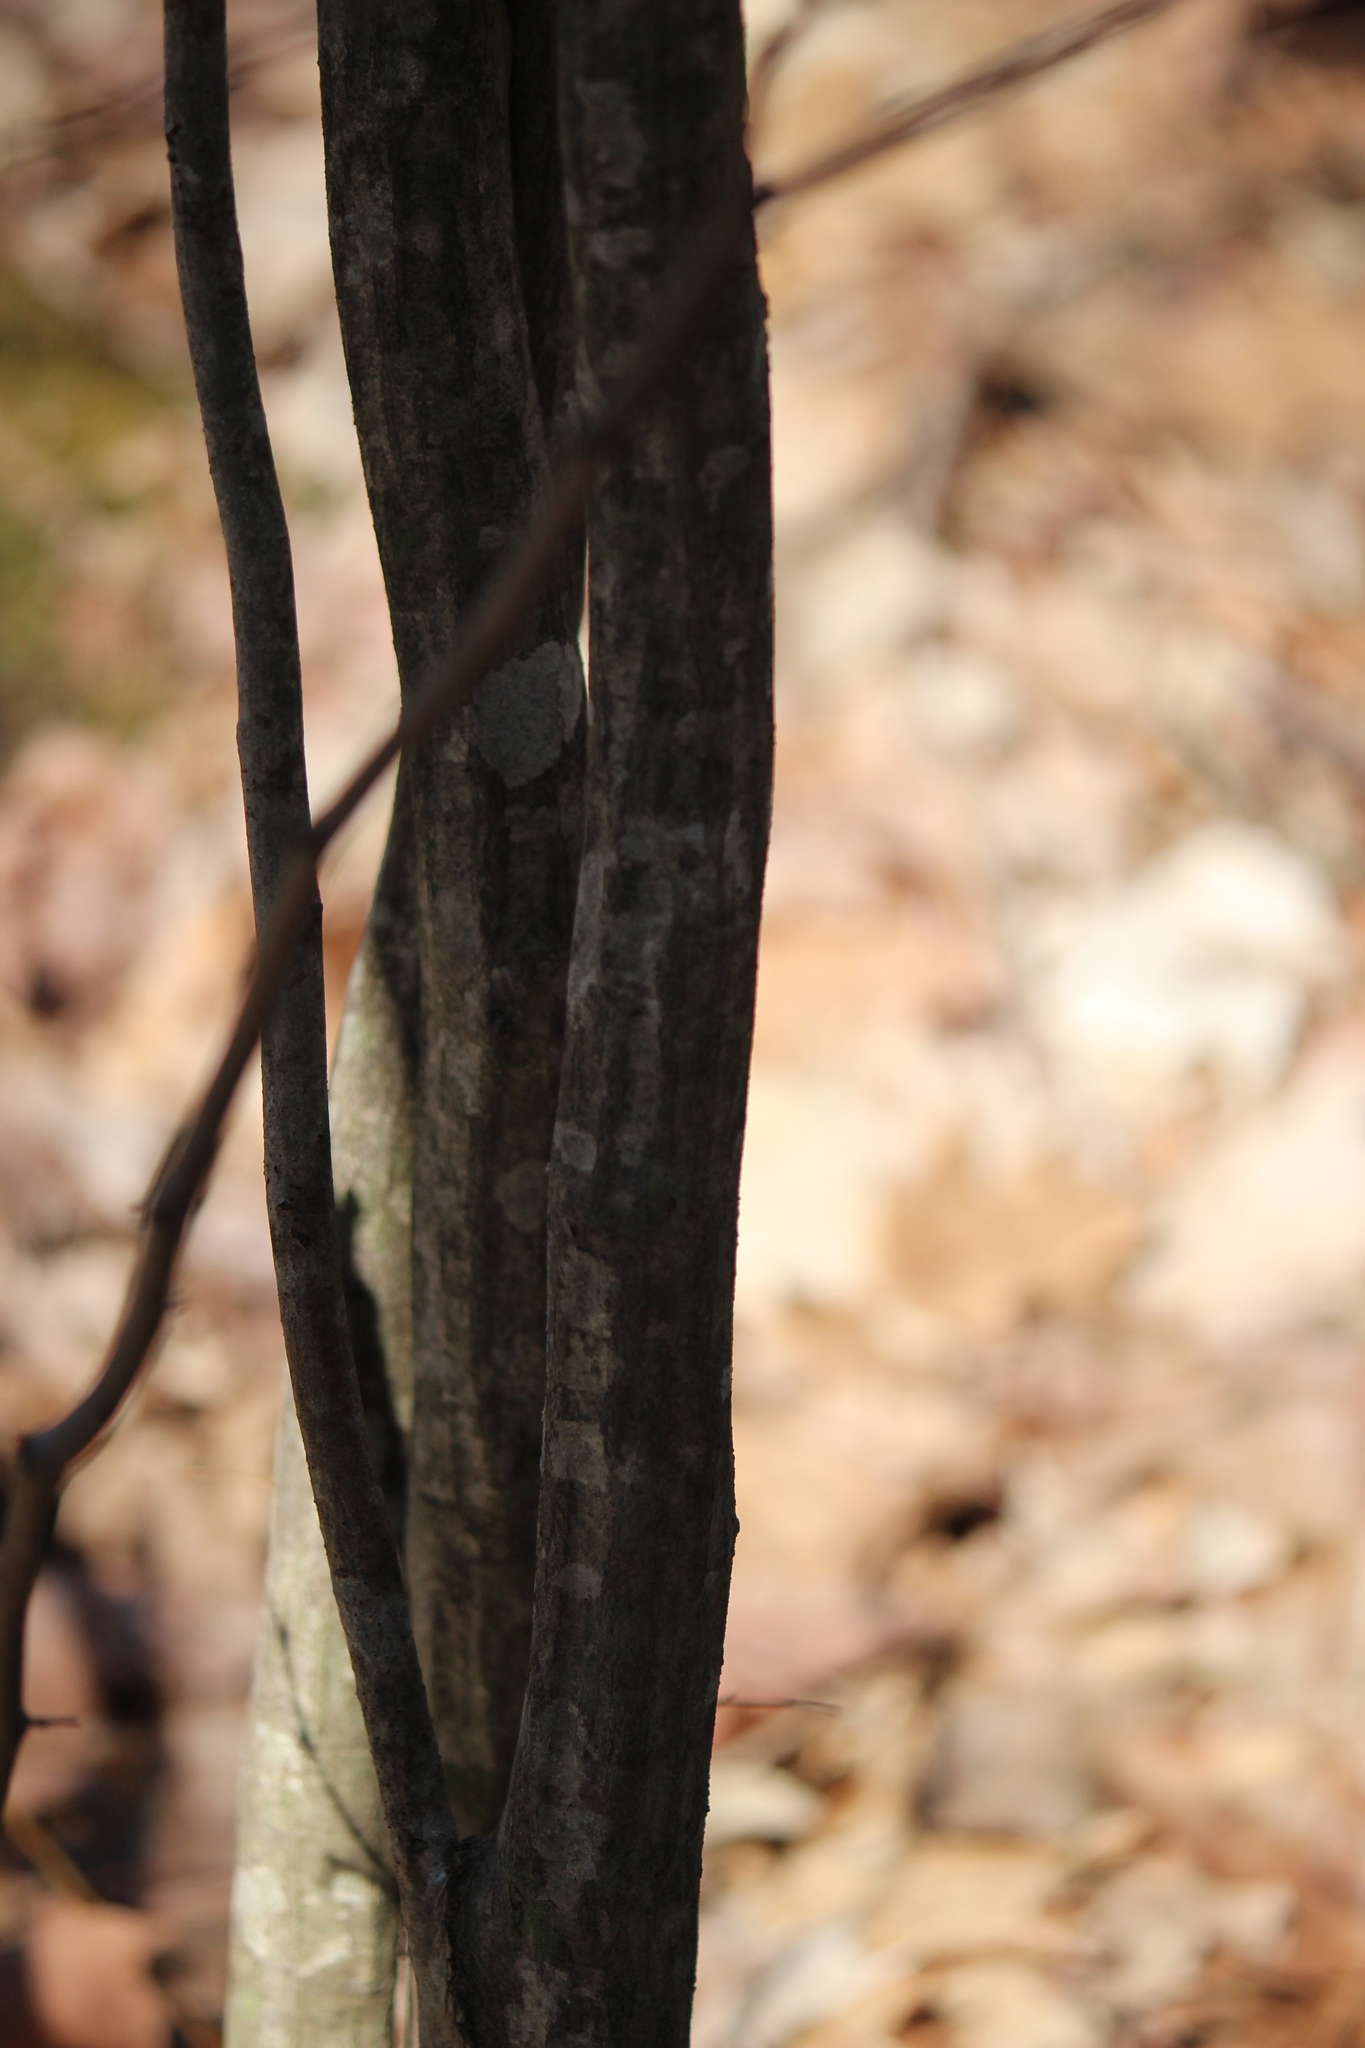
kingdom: Plantae
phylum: Tracheophyta
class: Magnoliopsida
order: Fagales
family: Betulaceae
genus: Carpinus
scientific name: Carpinus caroliniana
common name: American hornbeam
